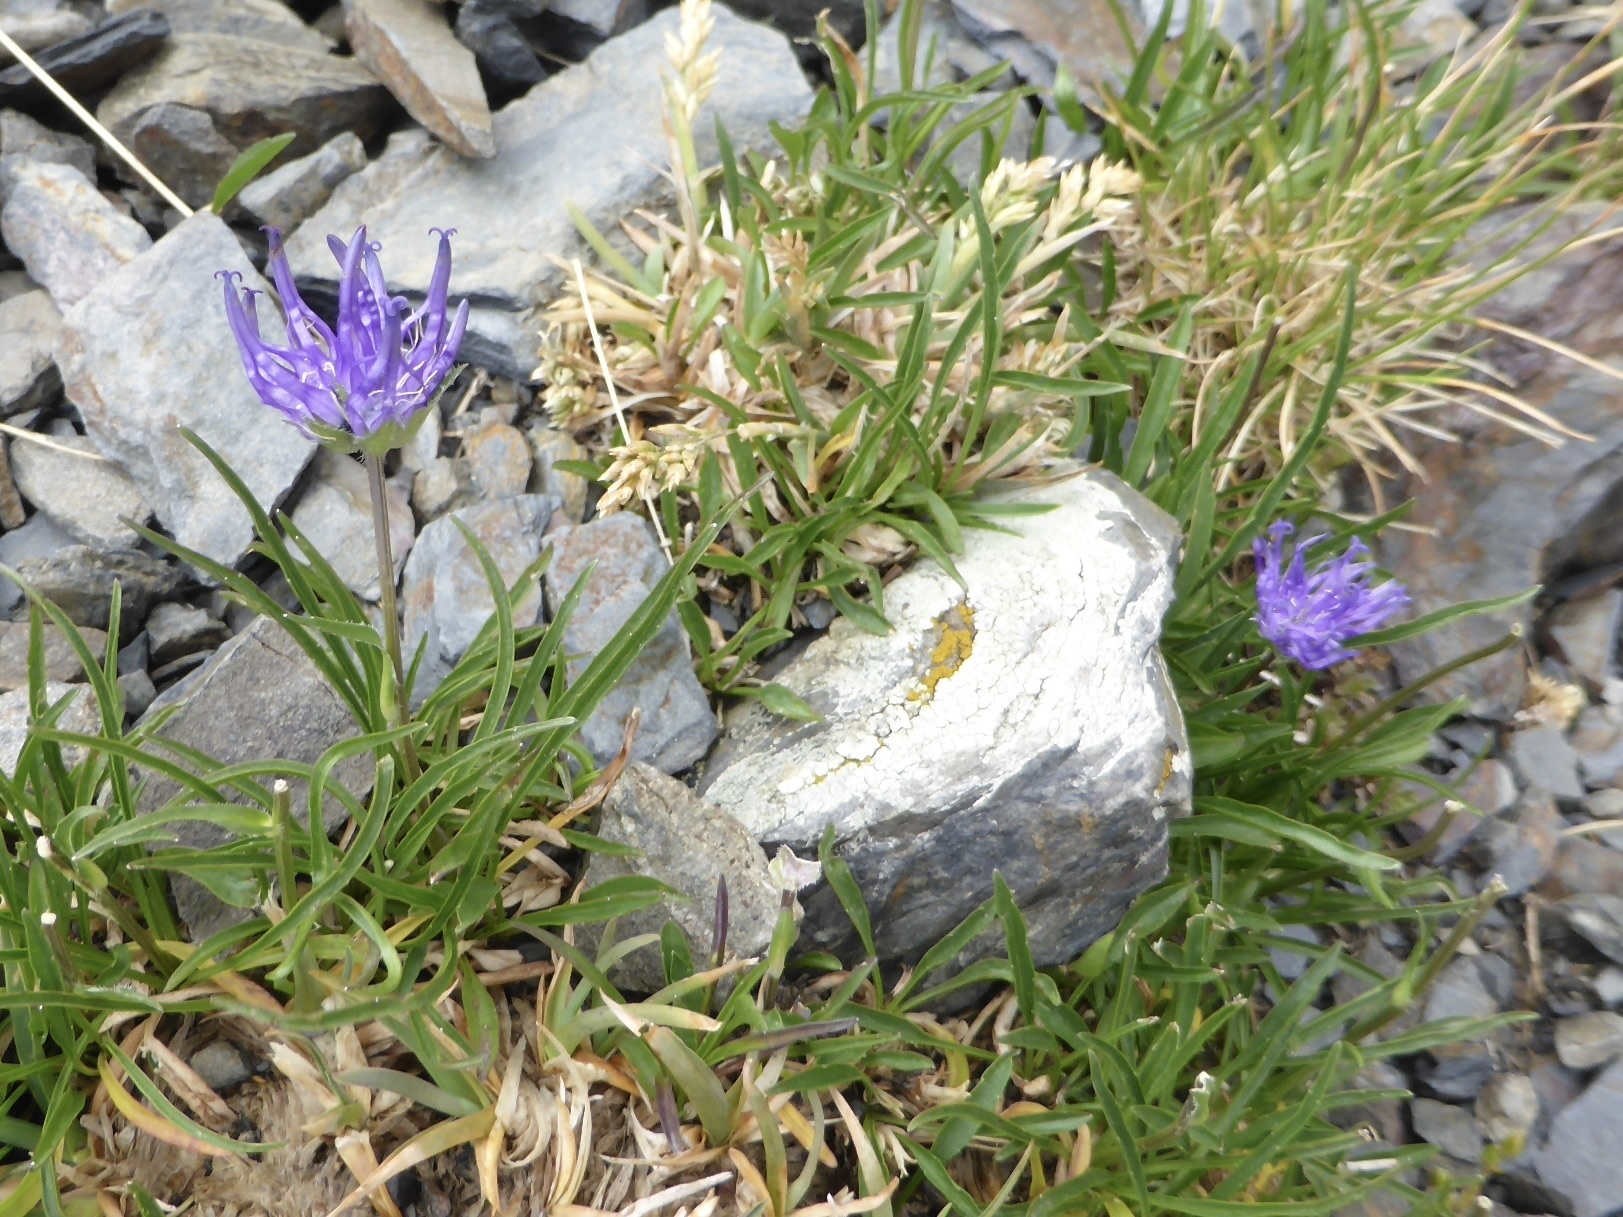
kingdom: Plantae
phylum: Tracheophyta
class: Magnoliopsida
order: Asterales
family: Campanulaceae
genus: Phyteuma
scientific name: Phyteuma hemisphaericum
